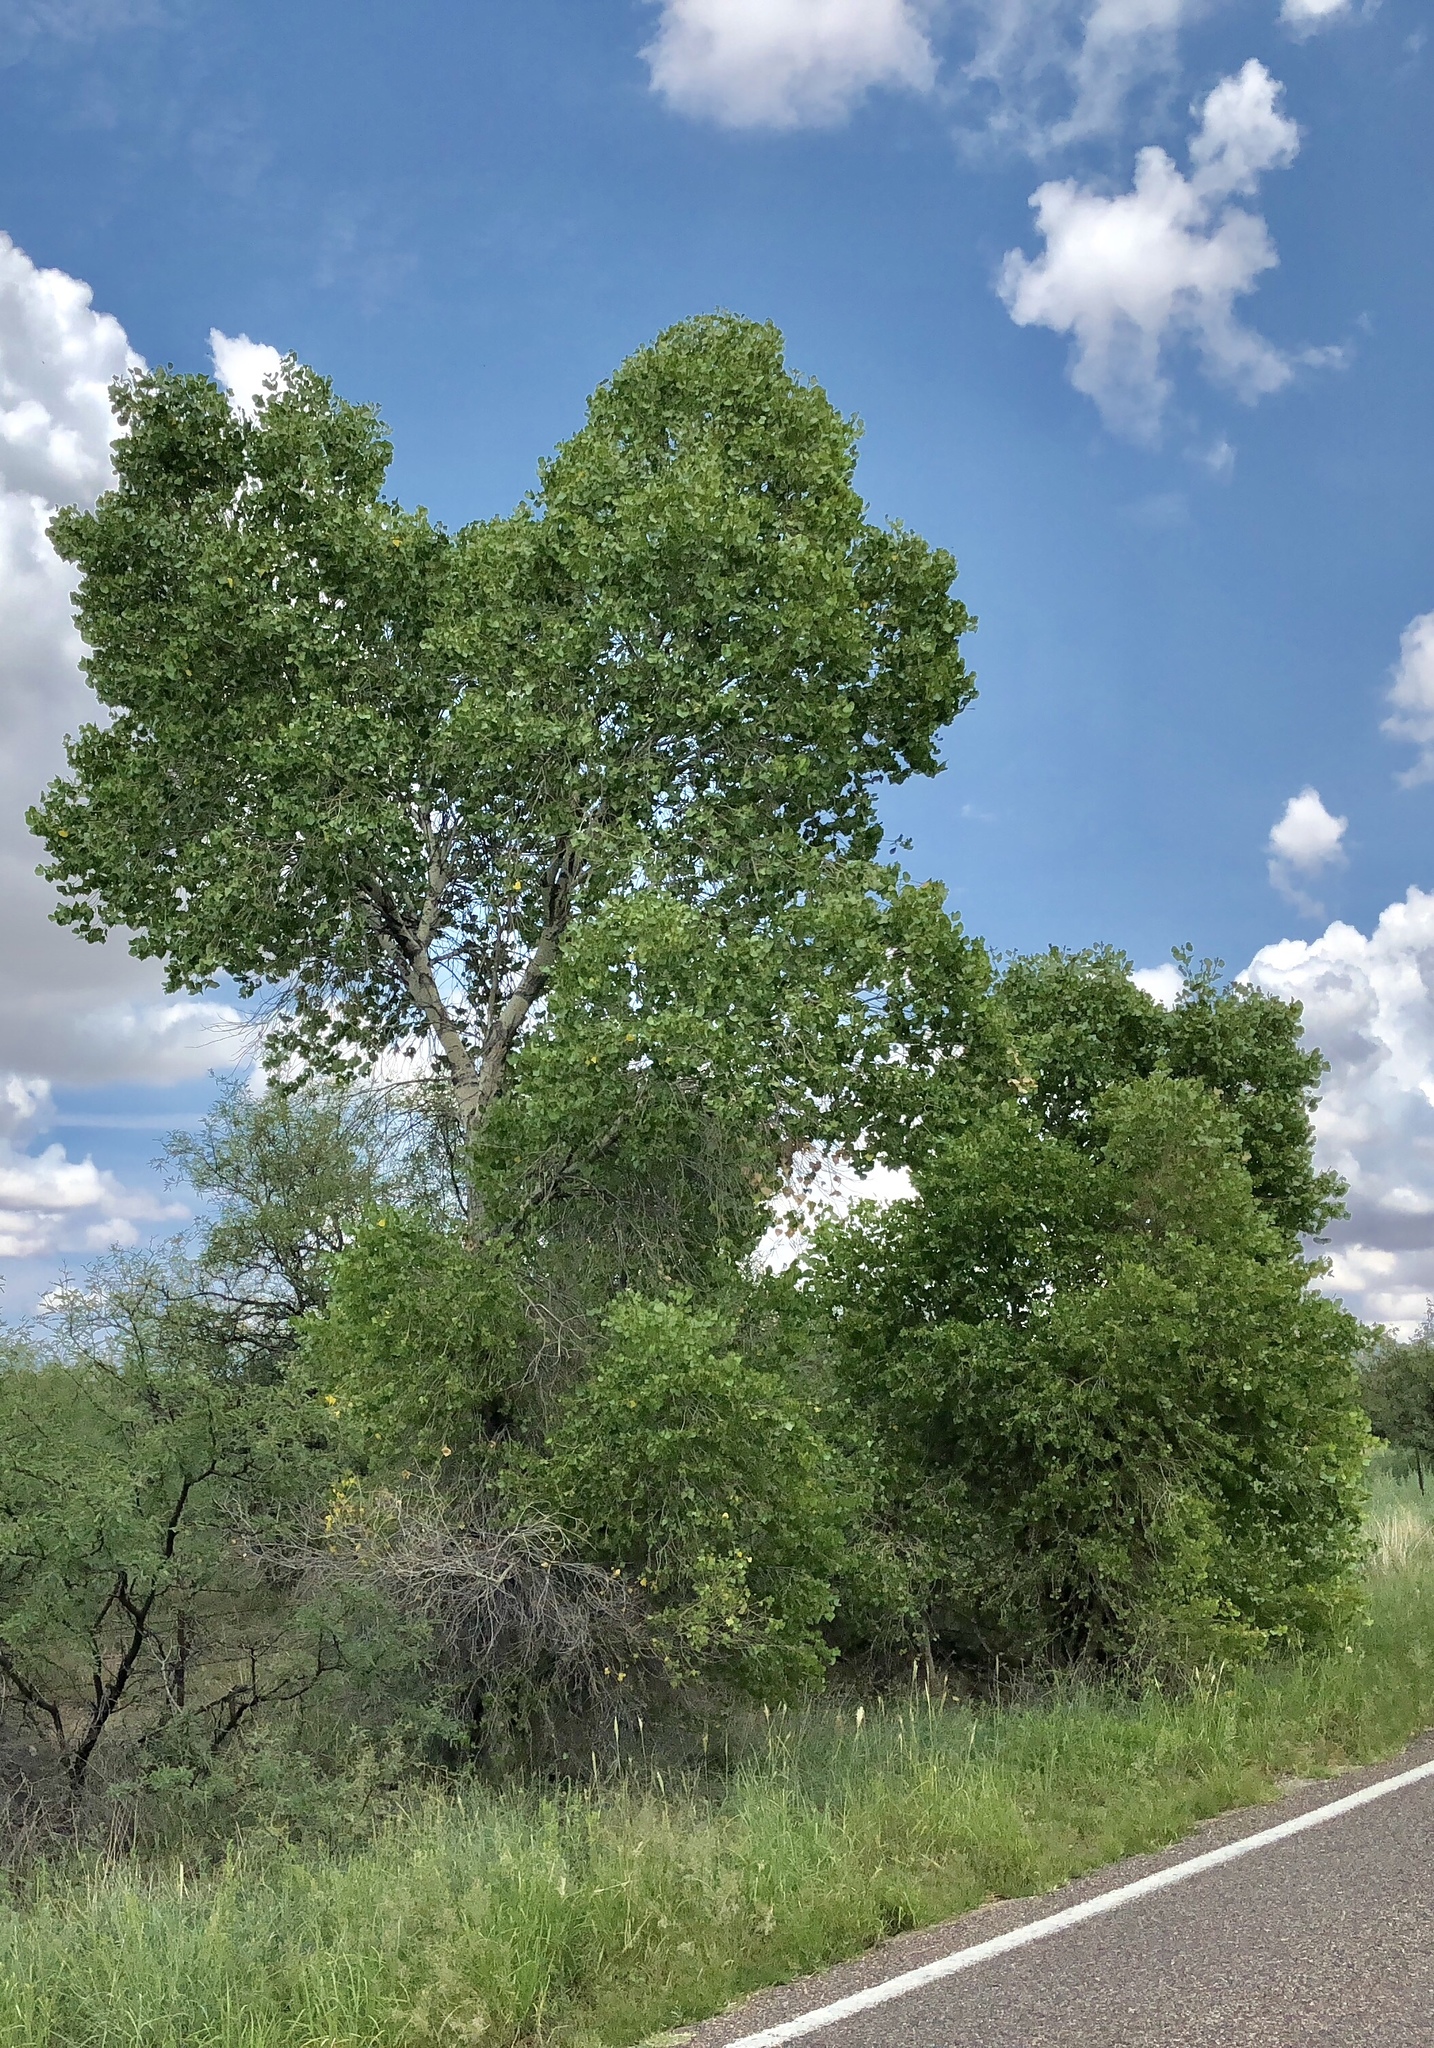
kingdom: Plantae
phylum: Tracheophyta
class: Magnoliopsida
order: Malpighiales
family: Salicaceae
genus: Populus
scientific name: Populus fremontii
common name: Fremont's cottonwood
